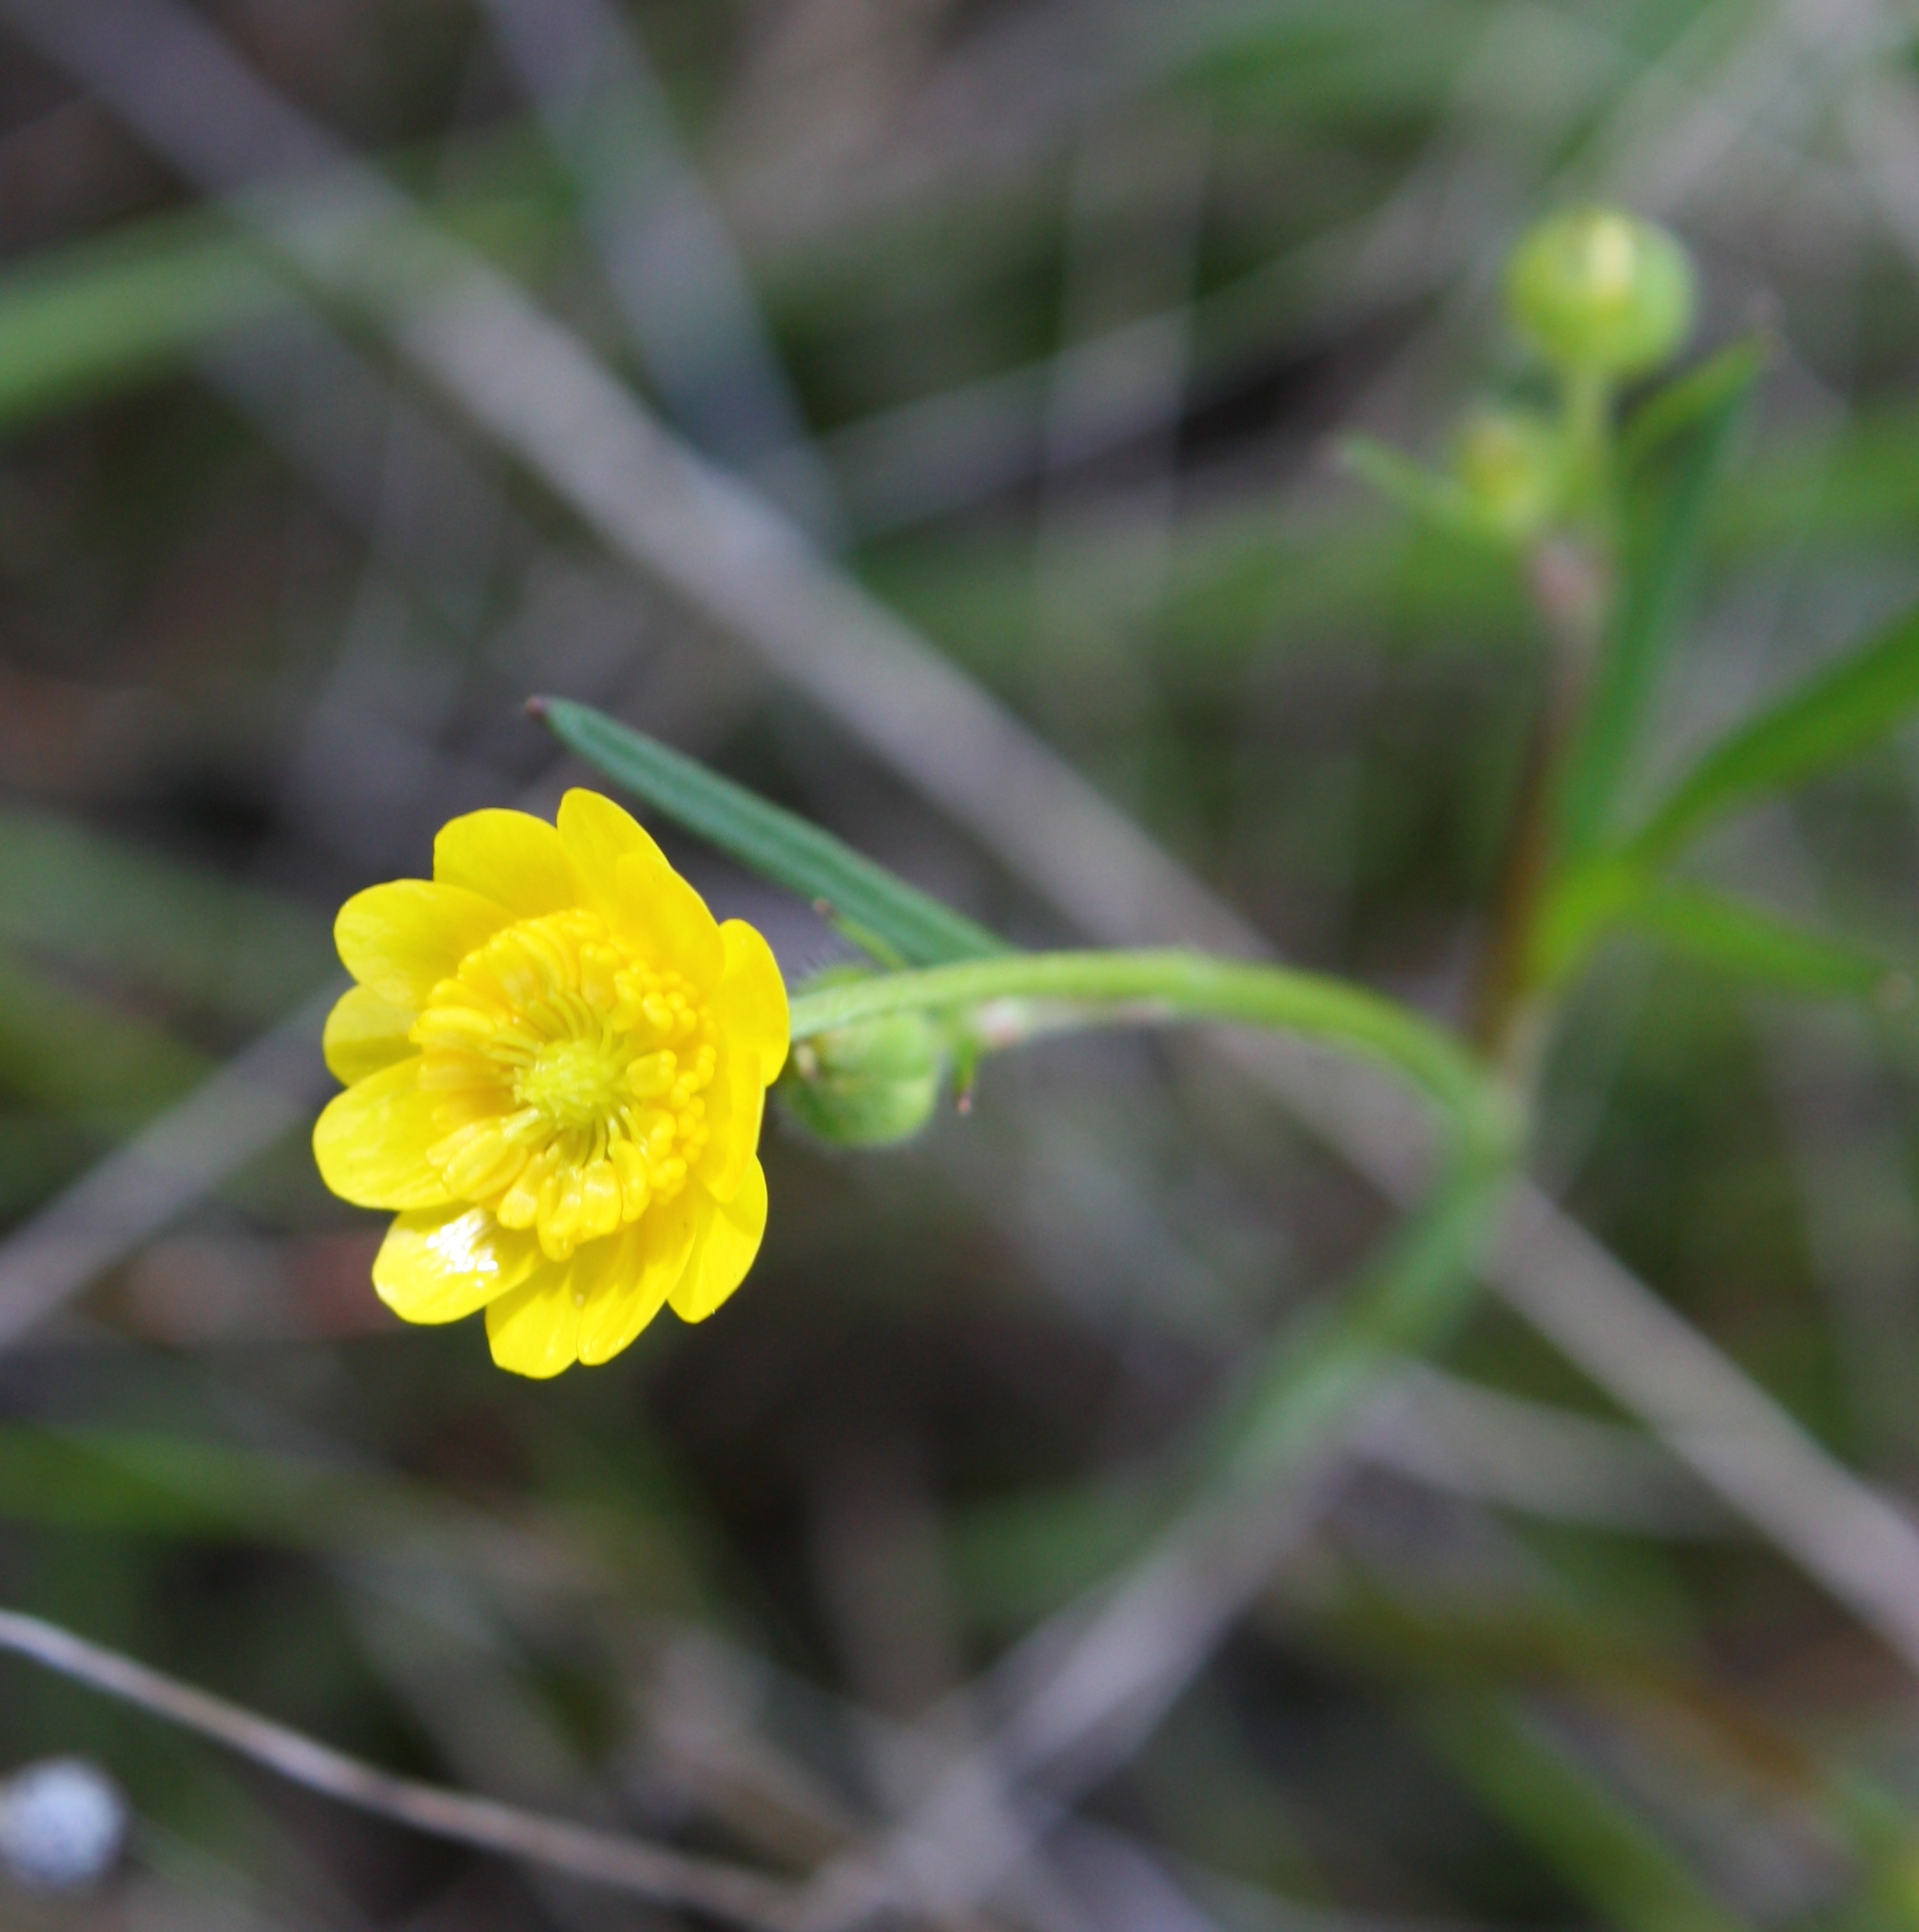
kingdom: Plantae
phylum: Tracheophyta
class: Magnoliopsida
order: Ranunculales
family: Ranunculaceae
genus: Ranunculus
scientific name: Ranunculus californicus
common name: California buttercup
